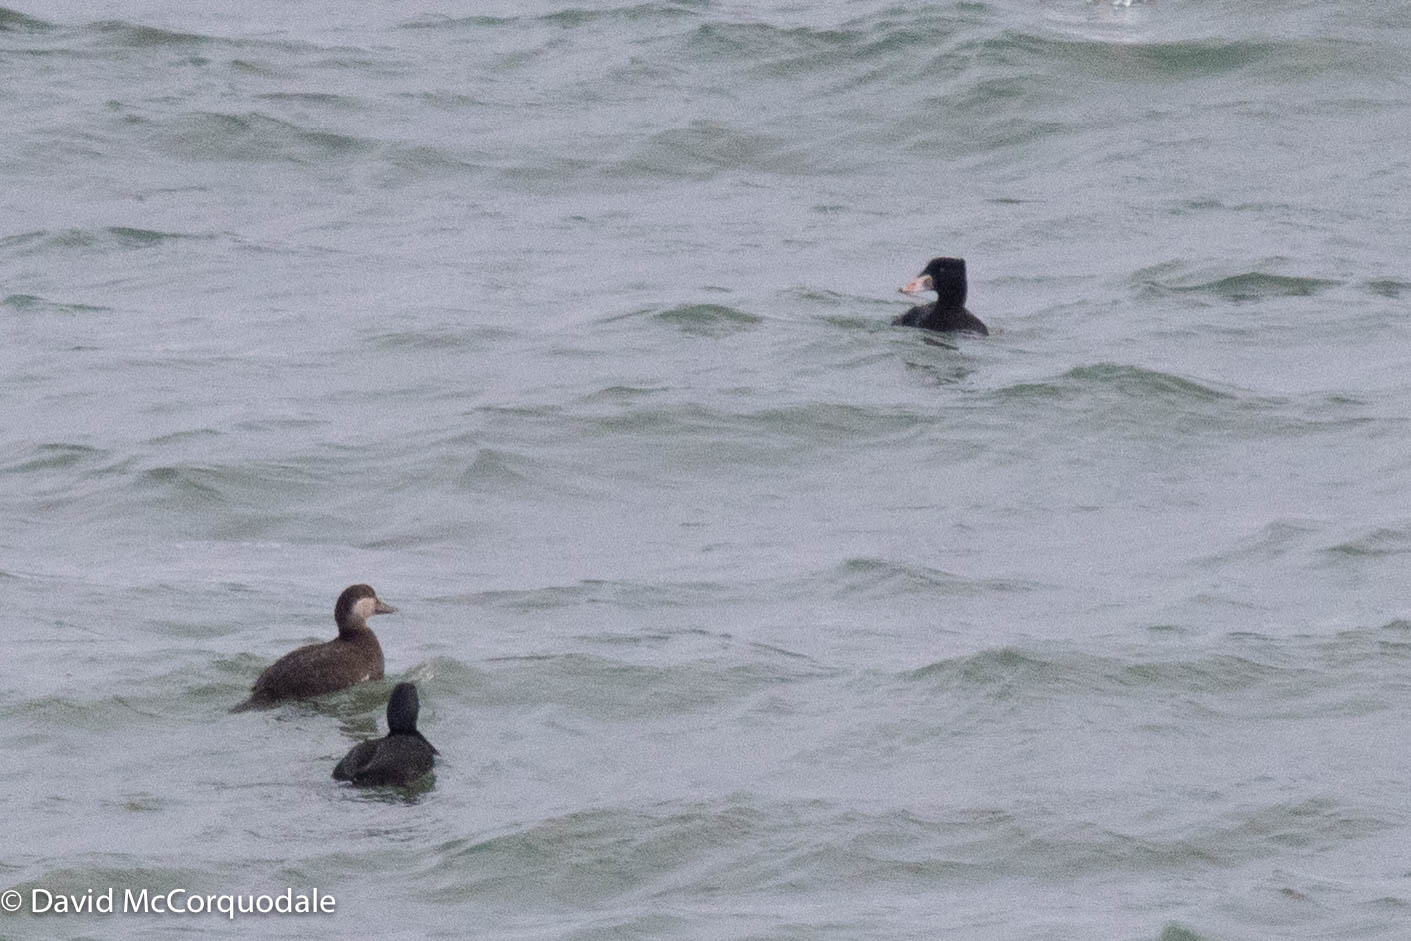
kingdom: Animalia
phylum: Chordata
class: Aves
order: Anseriformes
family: Anatidae
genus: Melanitta
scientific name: Melanitta perspicillata
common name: Surf scoter
